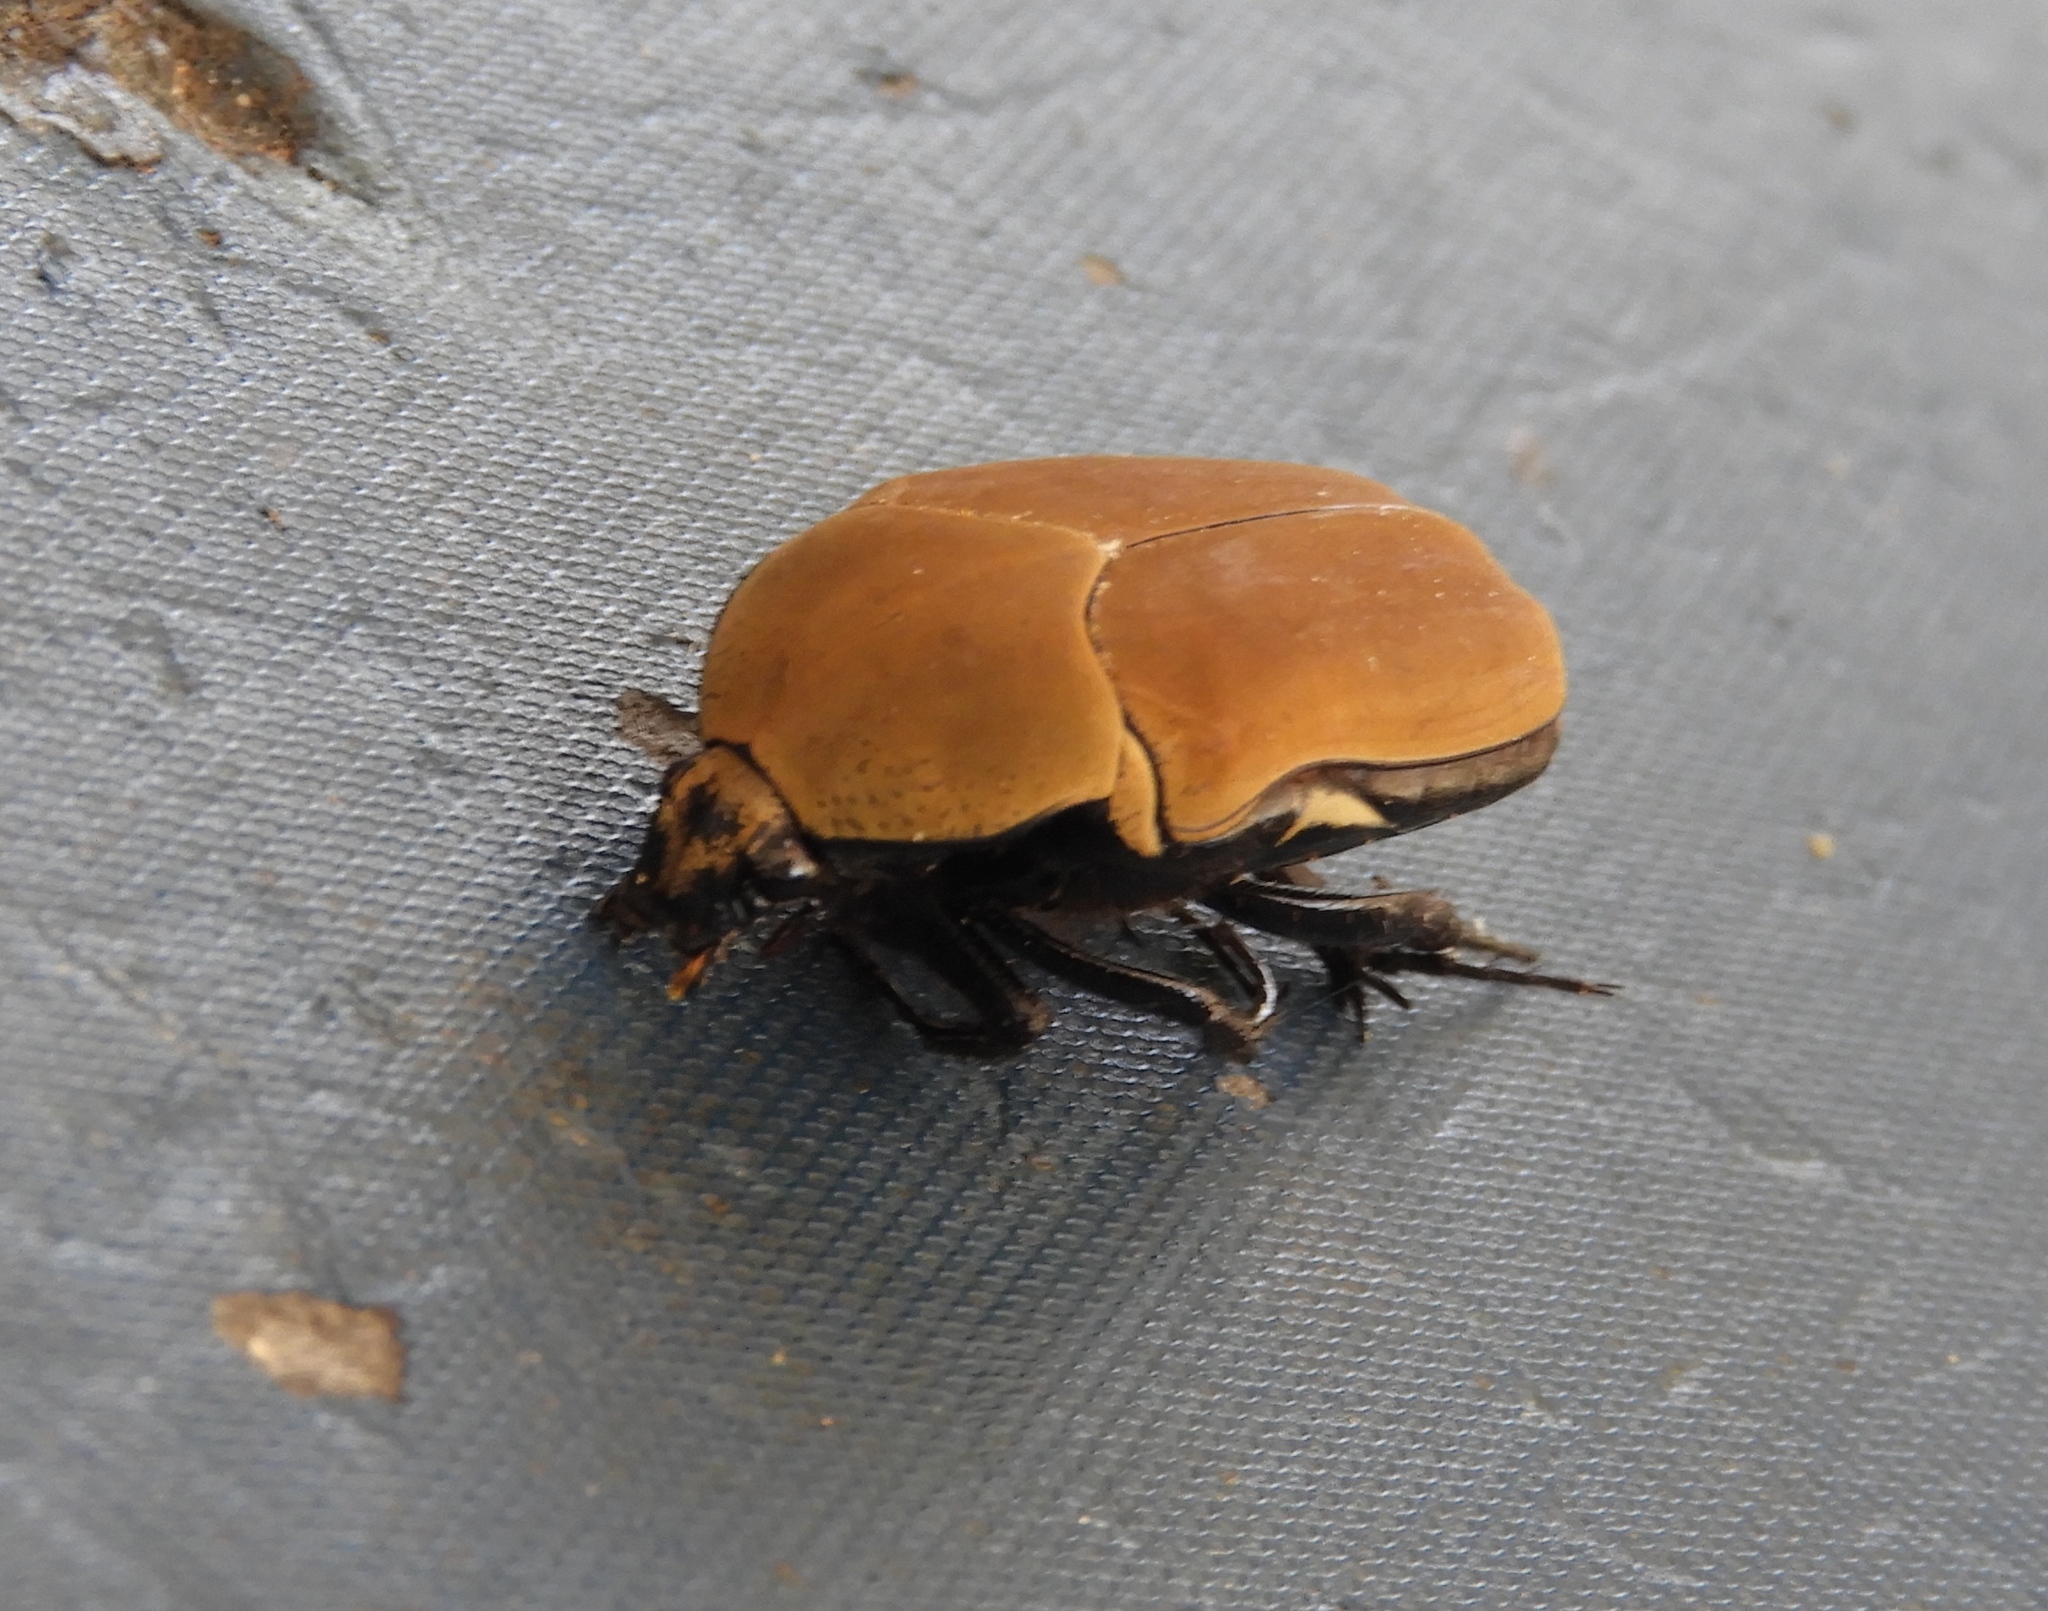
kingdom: Animalia
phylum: Arthropoda
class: Insecta
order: Coleoptera
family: Scarabaeidae
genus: Hologymnetis
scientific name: Hologymnetis cinerea
